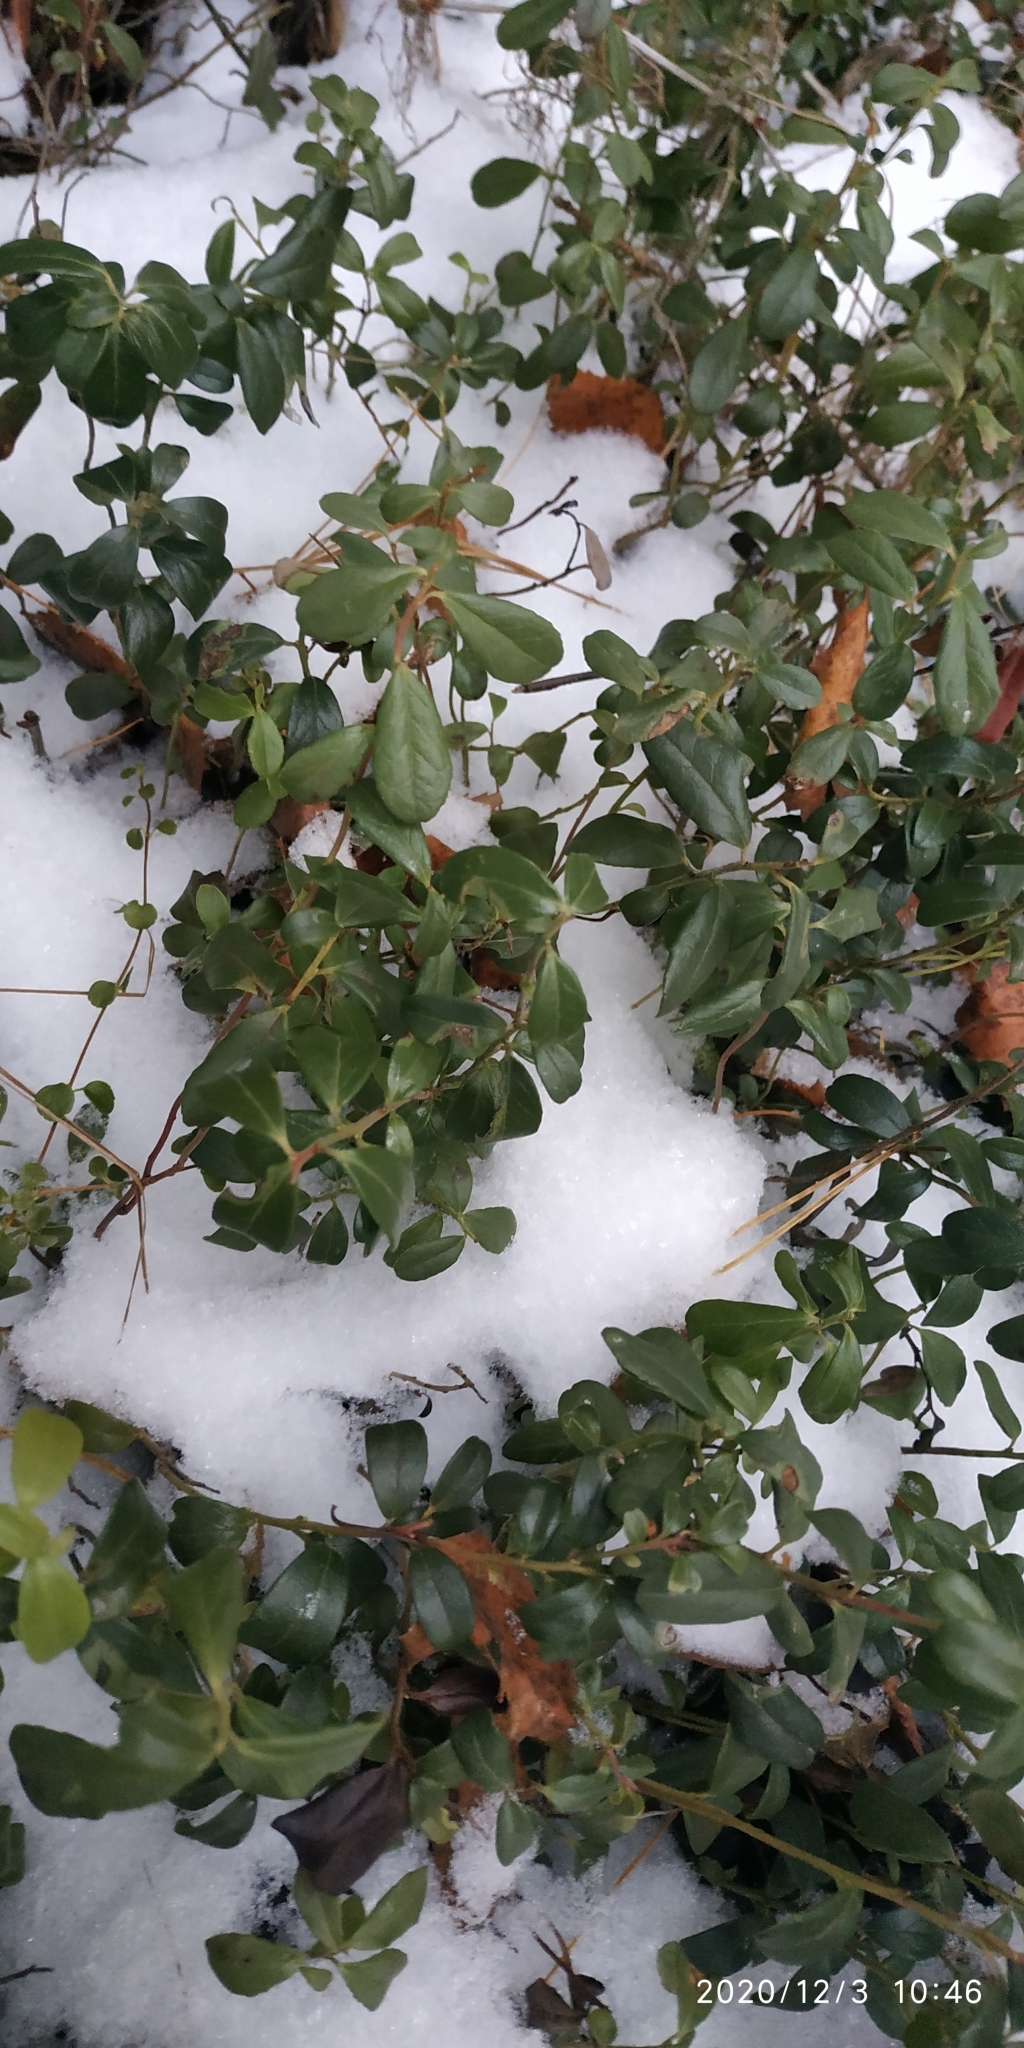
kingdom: Plantae
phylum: Tracheophyta
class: Magnoliopsida
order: Ericales
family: Ericaceae
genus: Vaccinium
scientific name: Vaccinium vitis-idaea
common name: Cowberry
